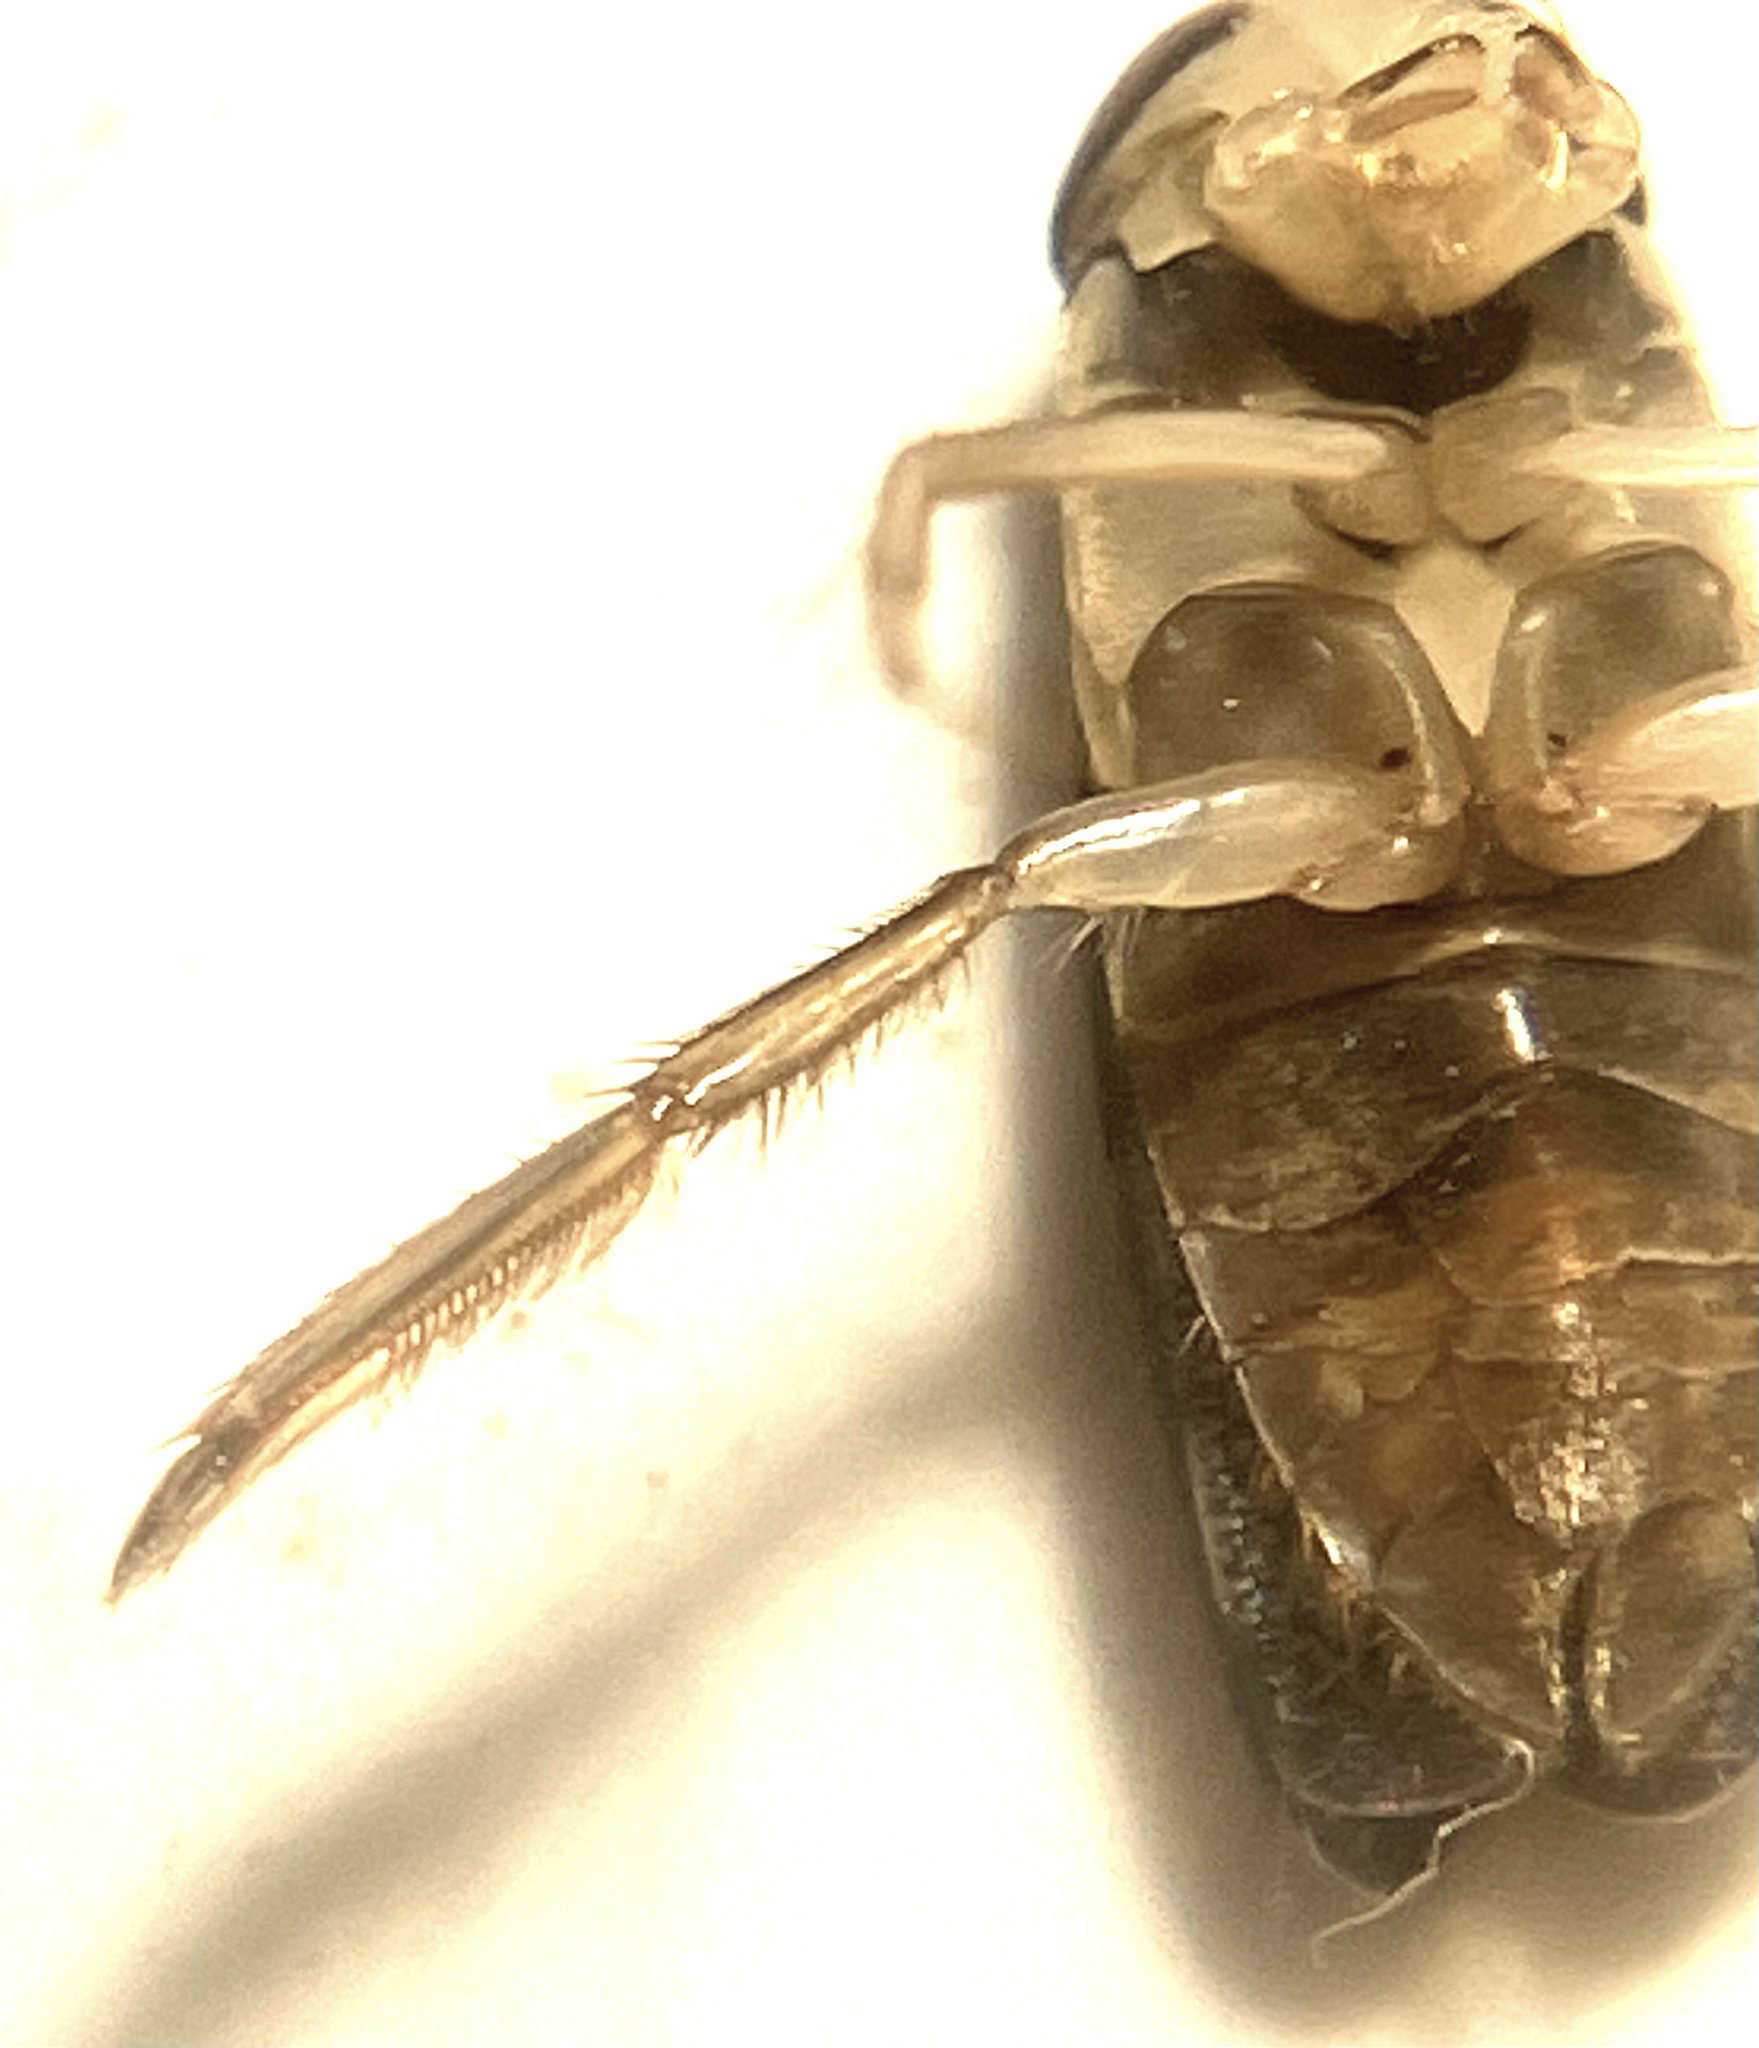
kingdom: Animalia
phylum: Arthropoda
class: Insecta
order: Hemiptera
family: Corixidae
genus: Hesperocorixa
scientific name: Hesperocorixa nitida
